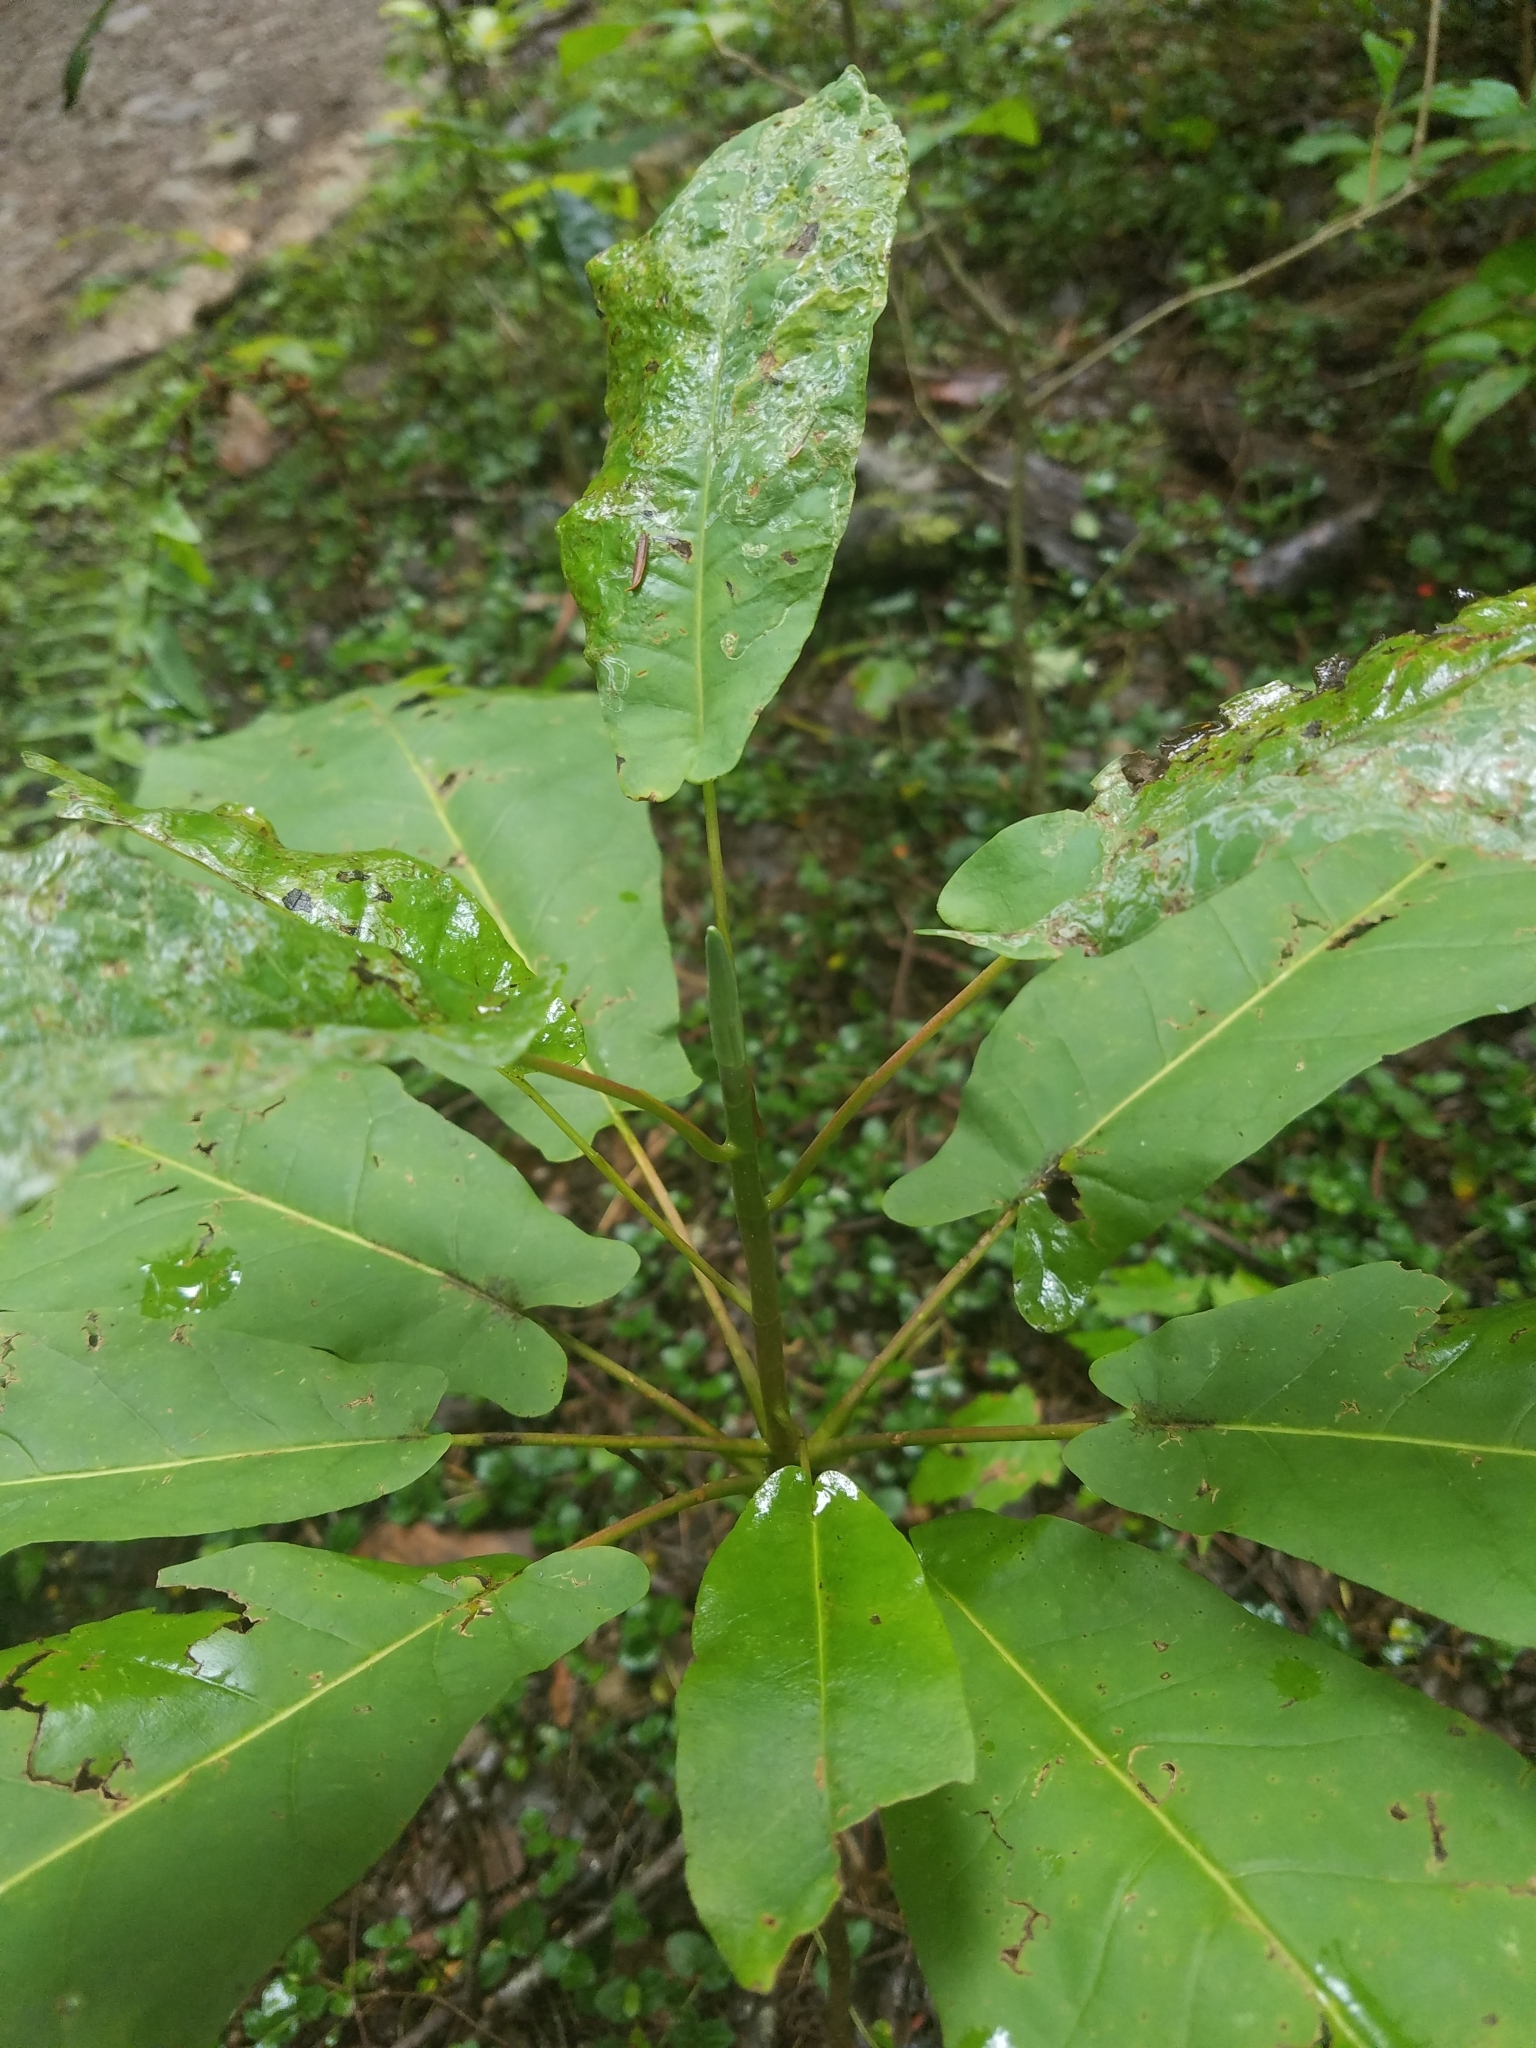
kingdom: Plantae
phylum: Tracheophyta
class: Magnoliopsida
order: Magnoliales
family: Magnoliaceae
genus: Magnolia
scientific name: Magnolia fraseri
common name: Fraser's magnolia
